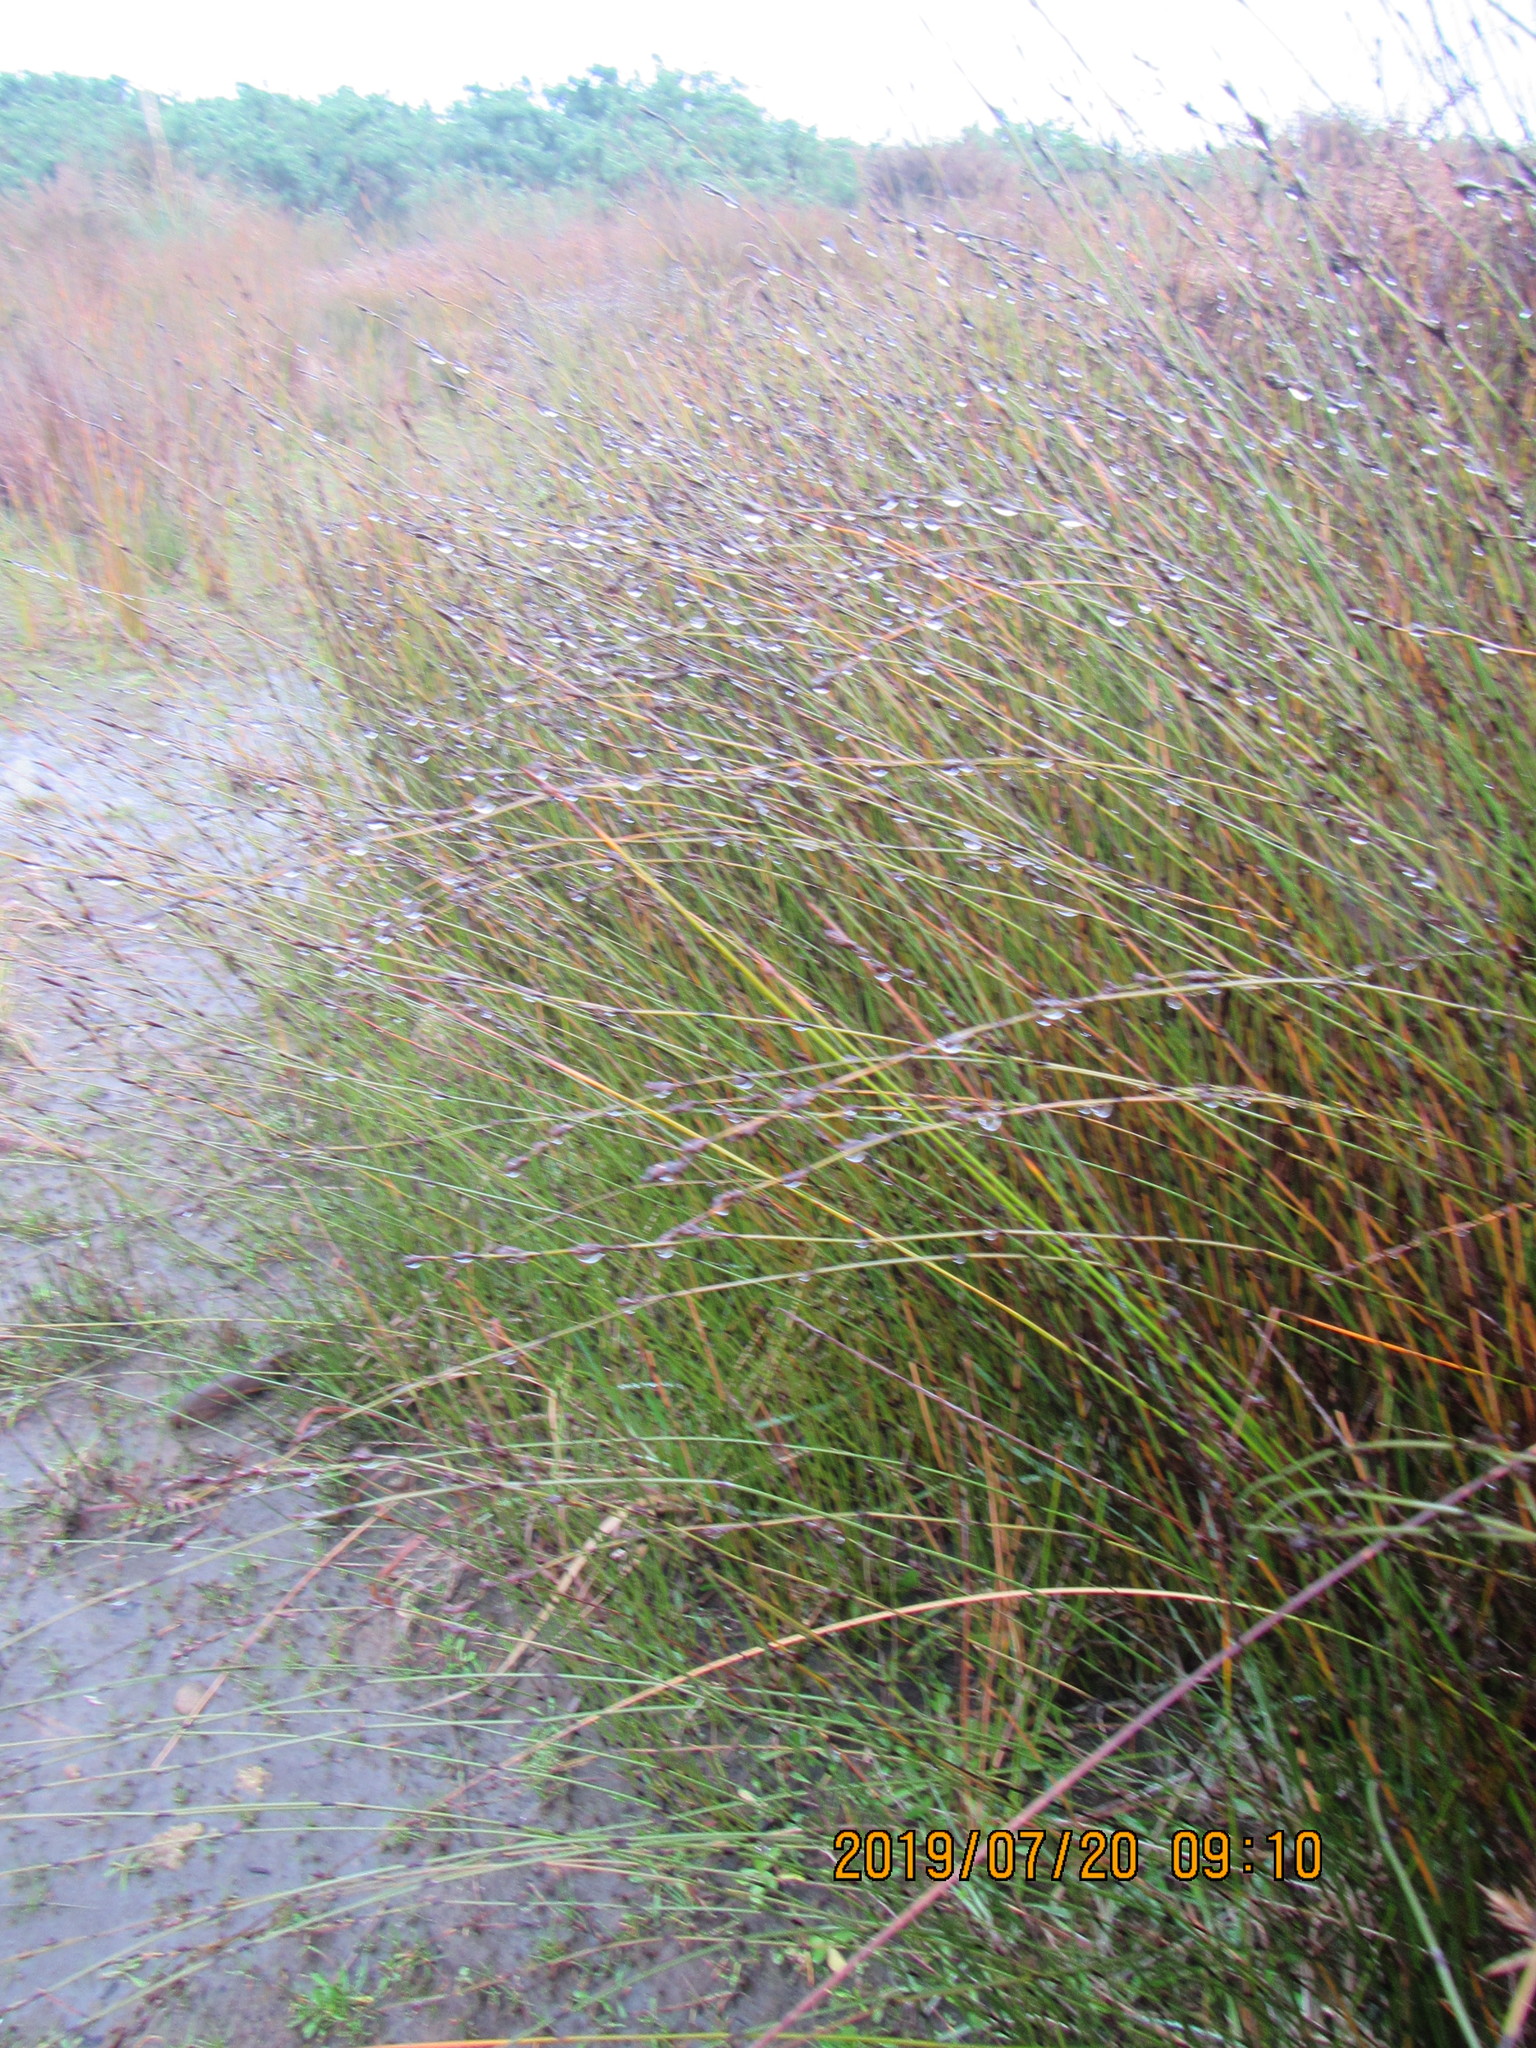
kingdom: Plantae
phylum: Tracheophyta
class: Liliopsida
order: Poales
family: Restionaceae
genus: Apodasmia
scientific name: Apodasmia similis
